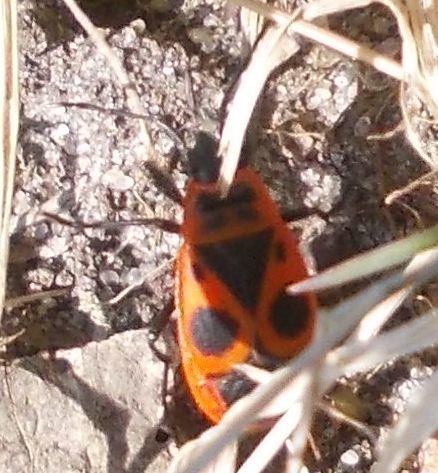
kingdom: Animalia
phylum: Arthropoda
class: Insecta
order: Hemiptera
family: Pyrrhocoridae
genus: Pyrrhocoris
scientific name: Pyrrhocoris apterus
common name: Firebug
